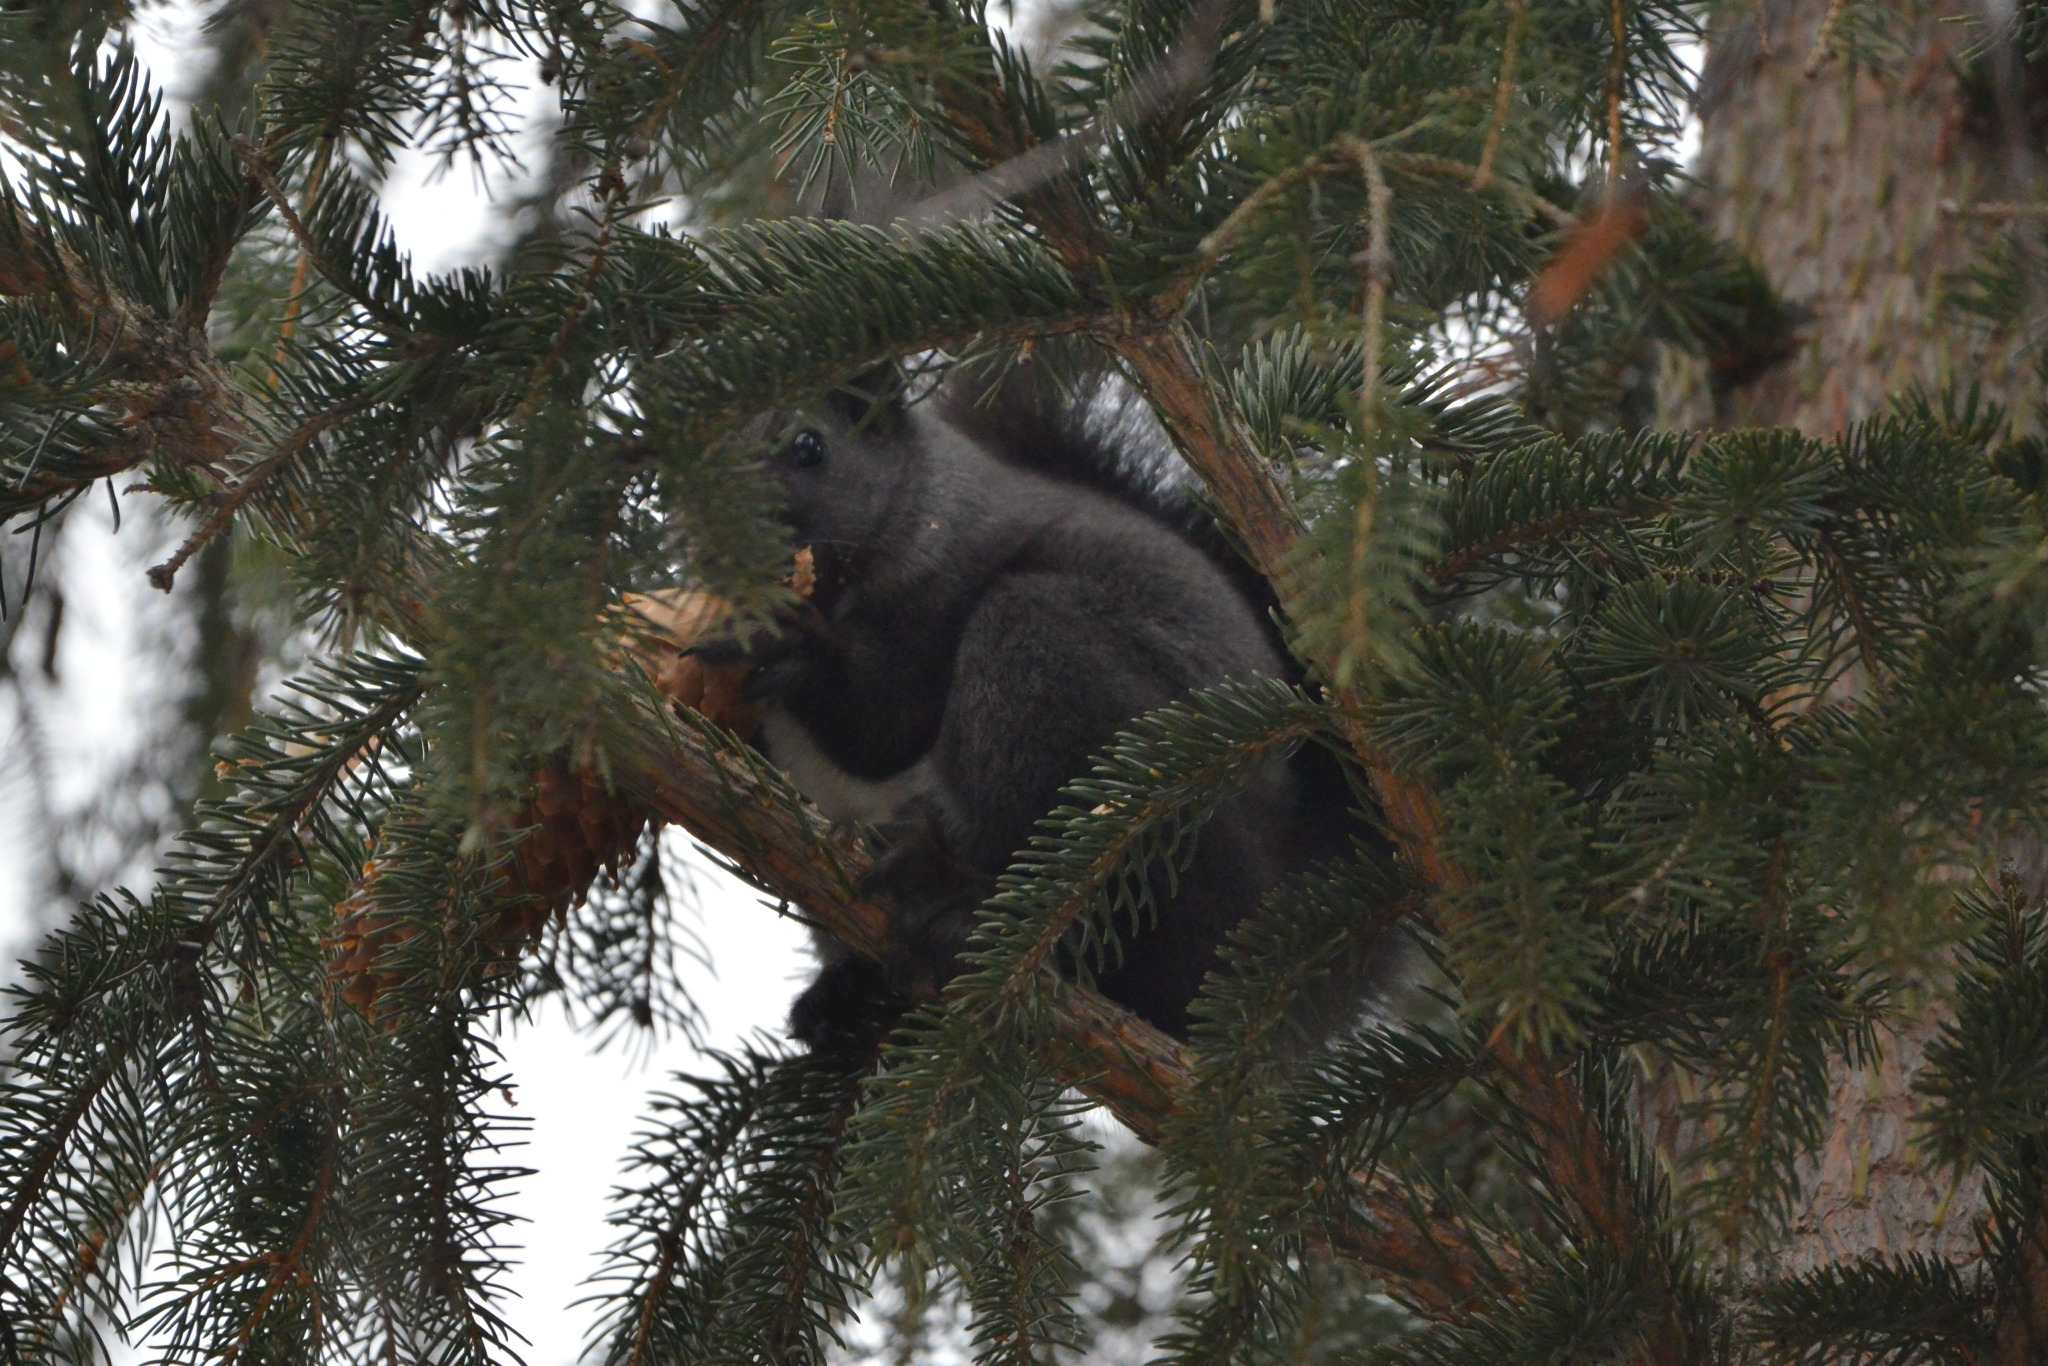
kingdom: Animalia
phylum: Chordata
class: Mammalia
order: Rodentia
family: Sciuridae
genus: Sciurus
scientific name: Sciurus vulgaris
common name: Eurasian red squirrel
